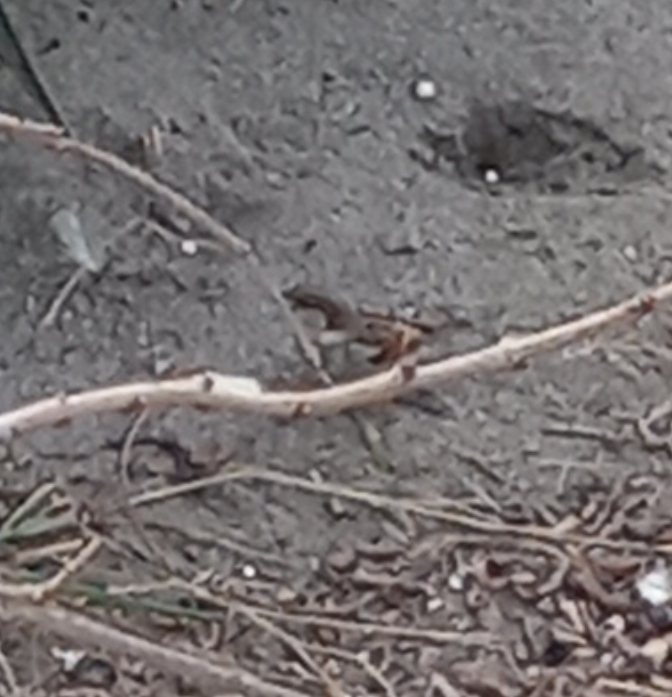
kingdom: Animalia
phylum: Chordata
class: Aves
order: Passeriformes
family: Passeridae
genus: Passer
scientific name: Passer domesticus
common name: House sparrow
